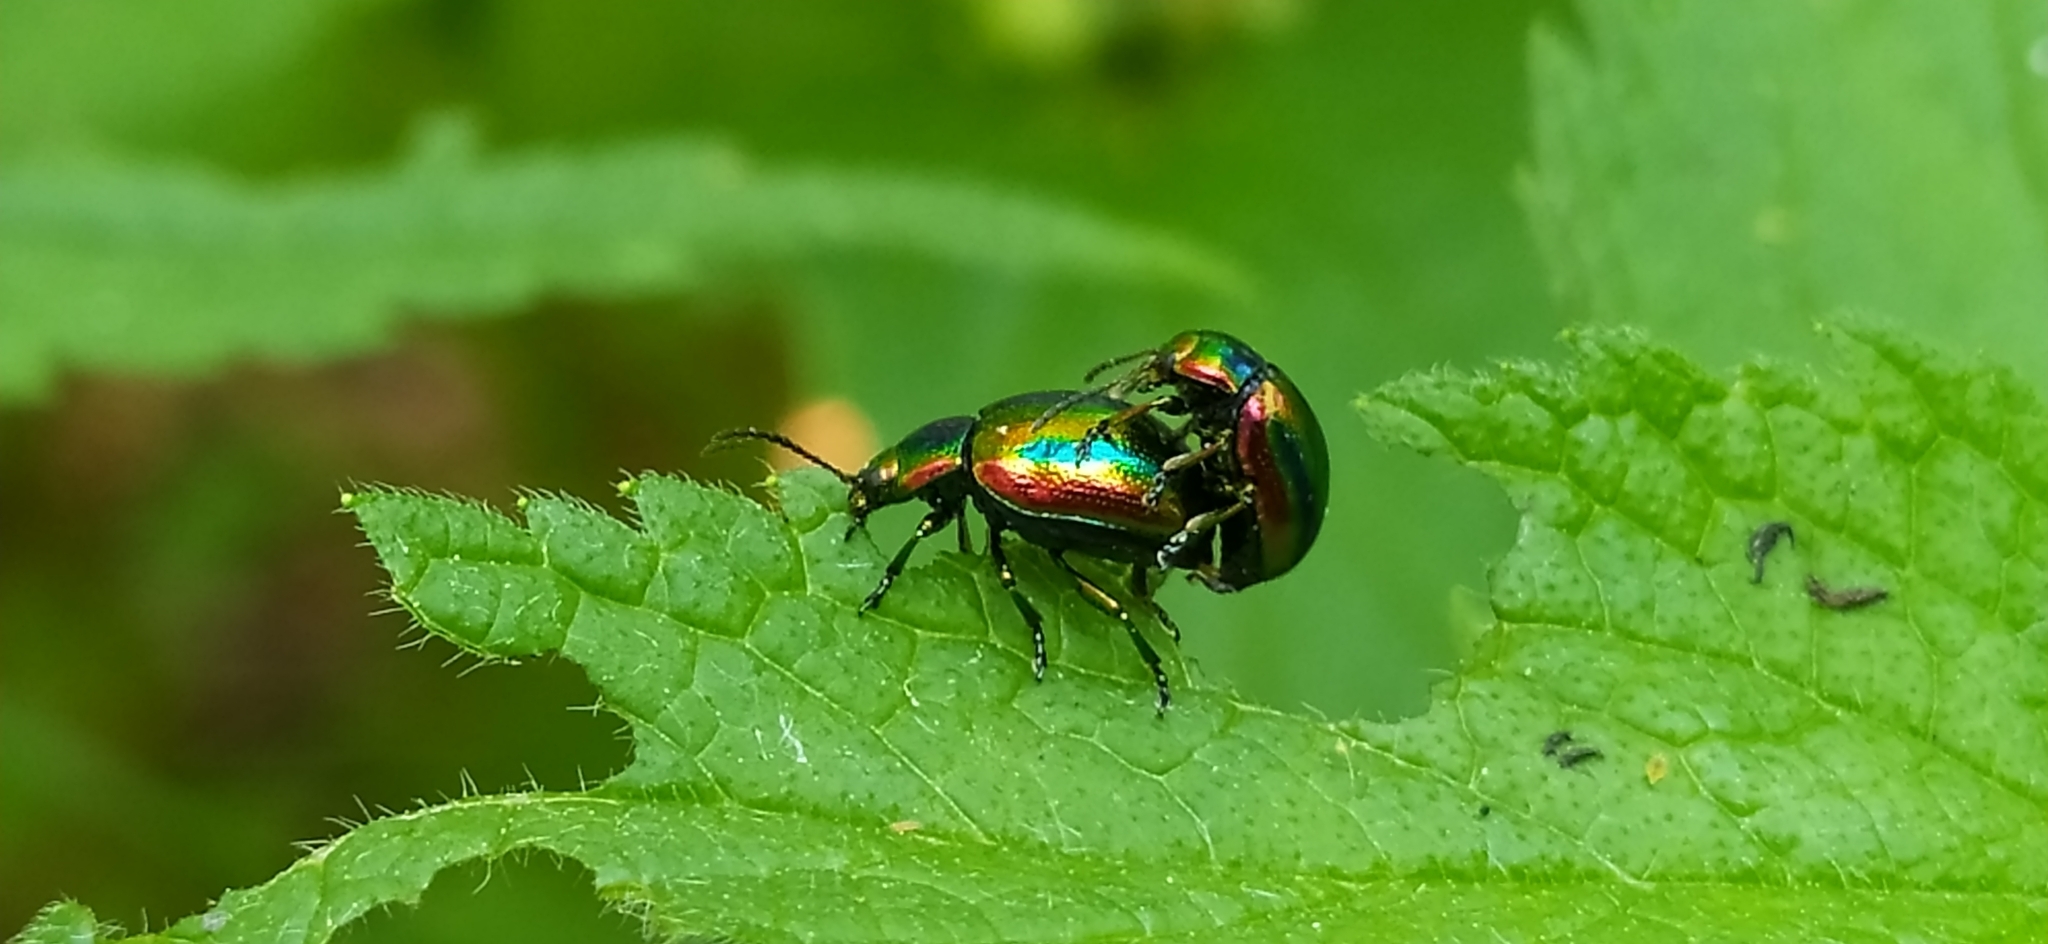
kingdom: Animalia
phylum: Arthropoda
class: Insecta
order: Coleoptera
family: Chrysomelidae
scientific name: Chrysomelidae
